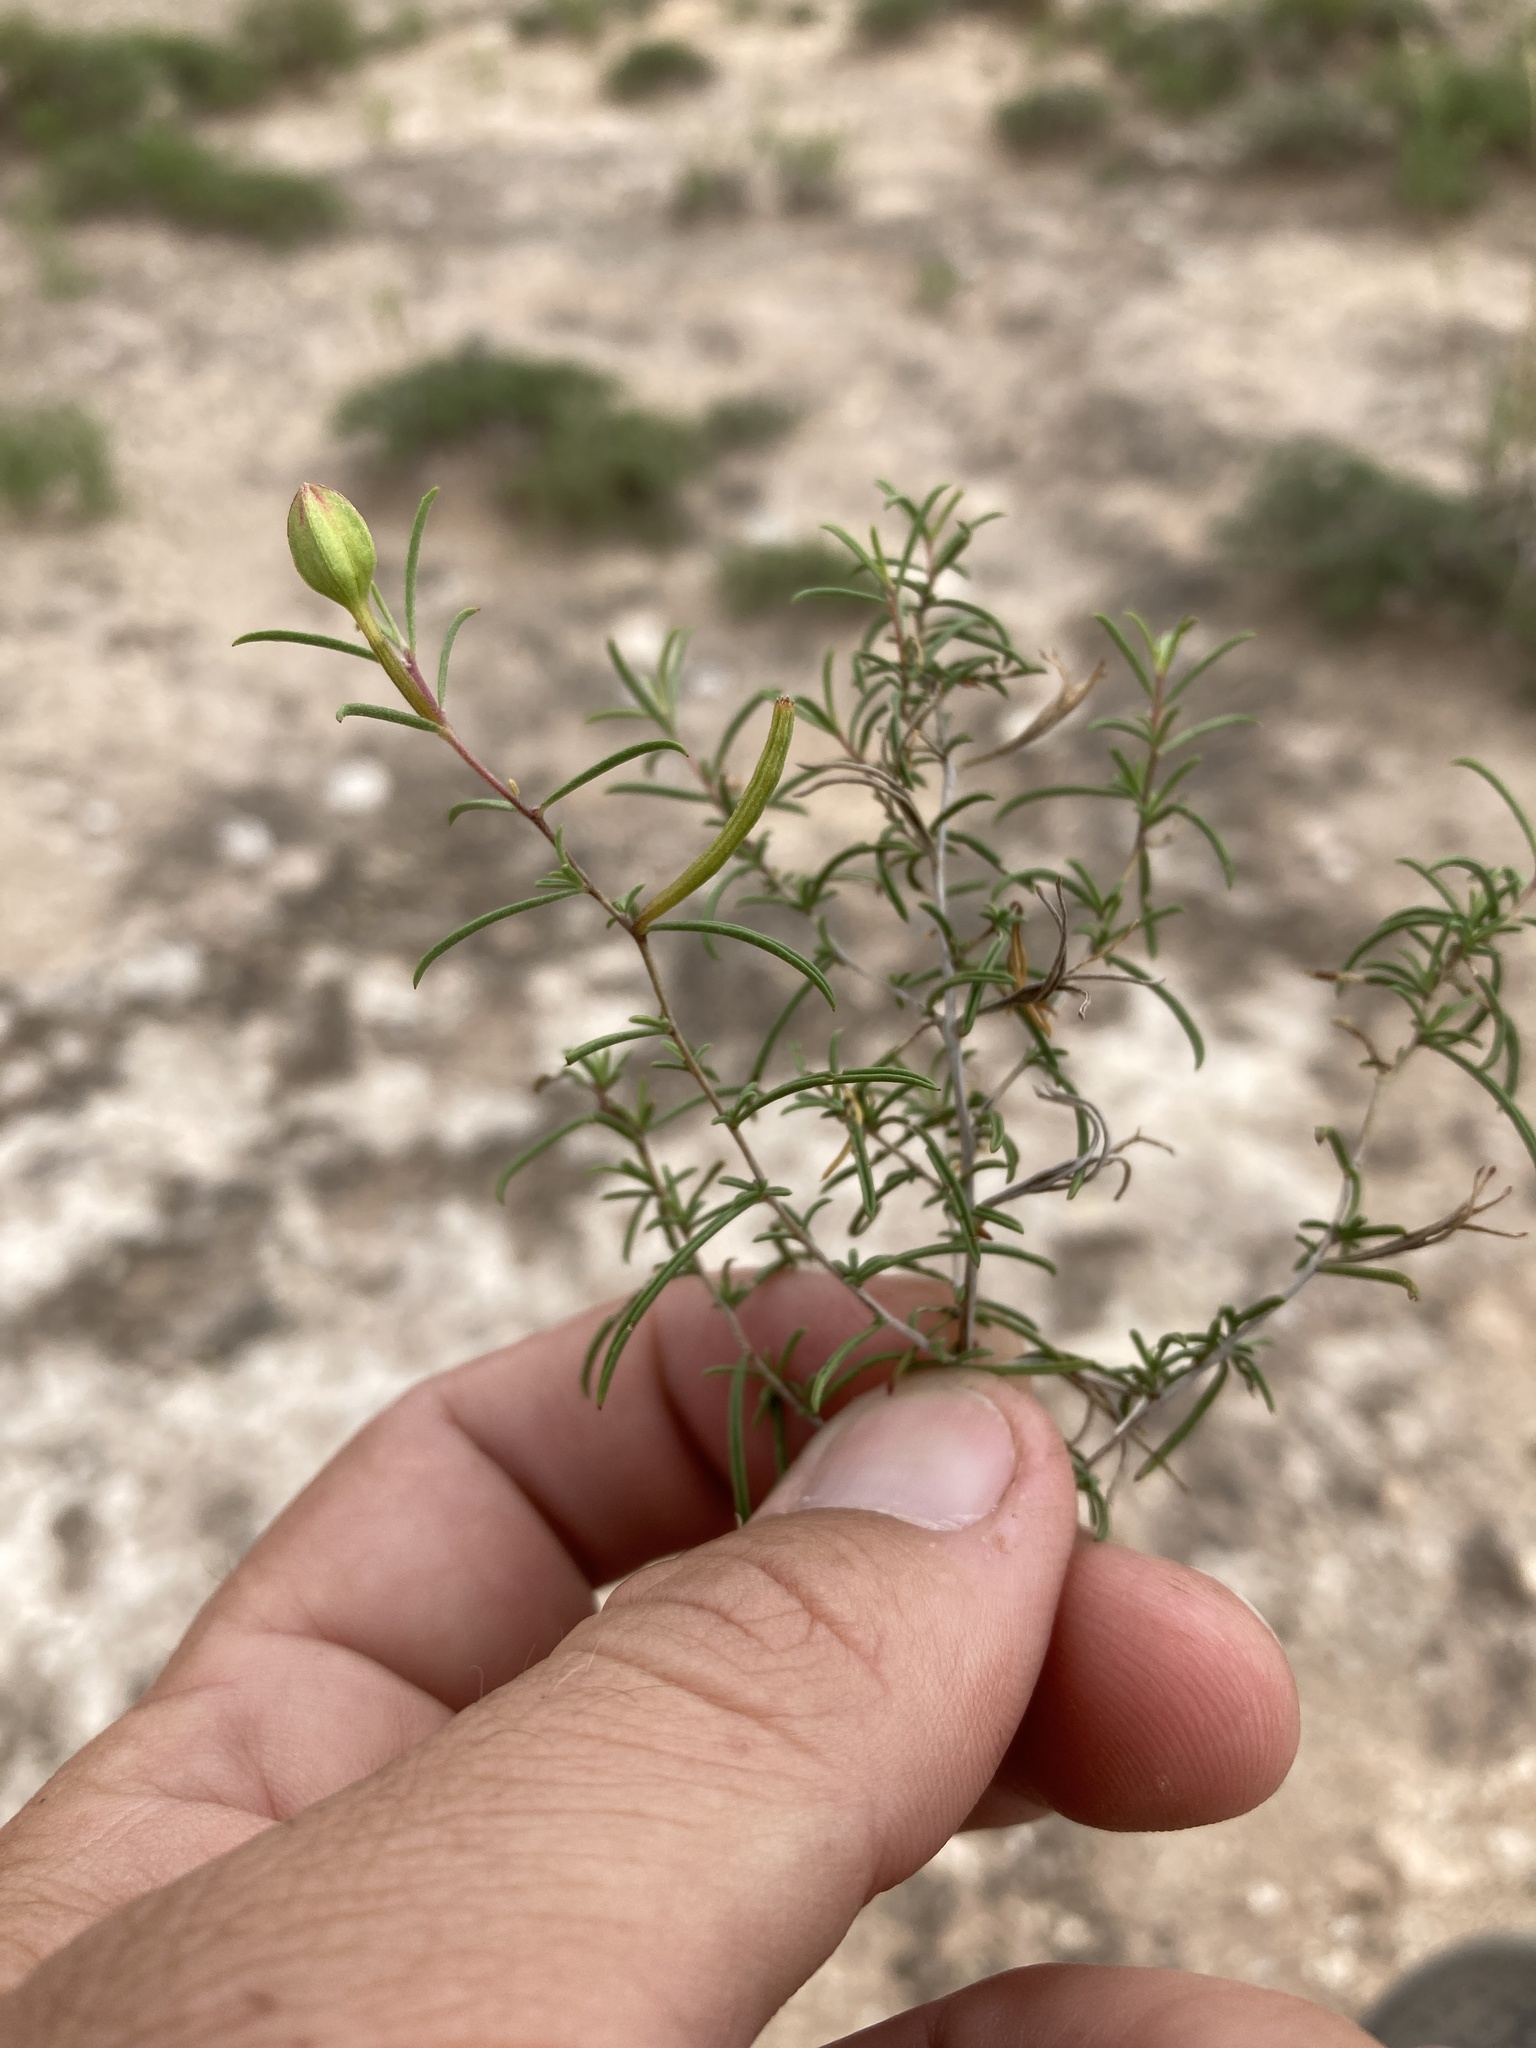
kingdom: Plantae
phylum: Tracheophyta
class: Magnoliopsida
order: Myrtales
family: Onagraceae
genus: Oenothera
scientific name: Oenothera gayleana
